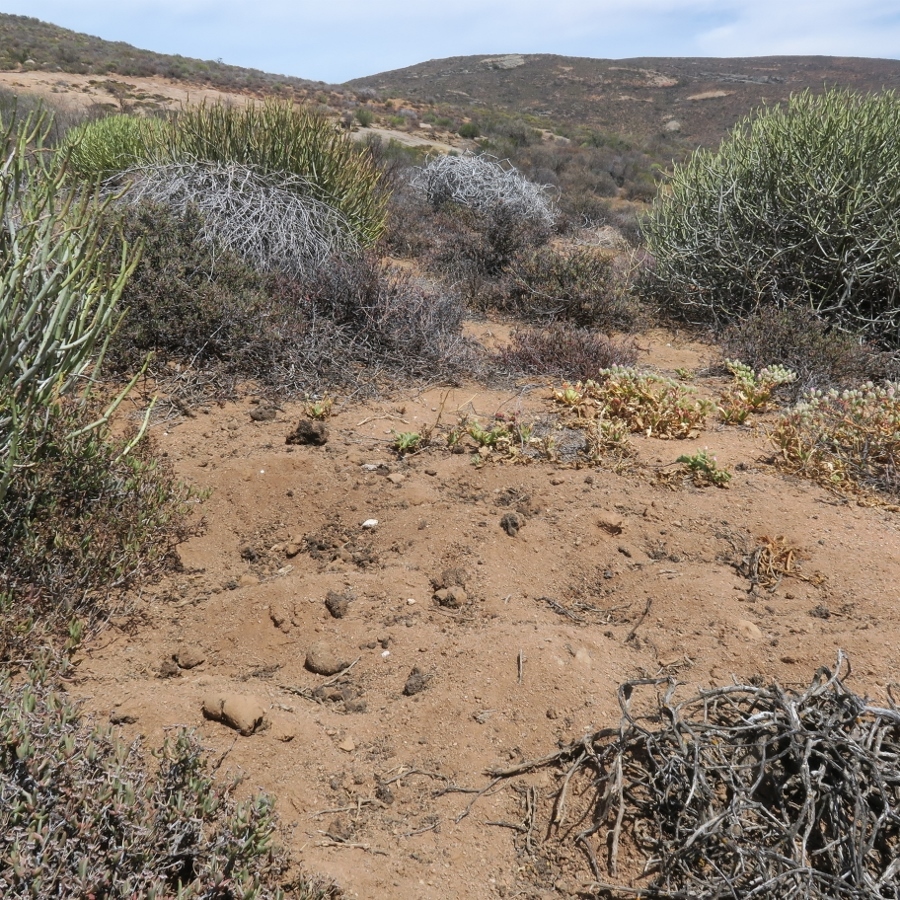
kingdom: Animalia
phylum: Chordata
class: Mammalia
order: Carnivora
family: Hyaenidae
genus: Proteles
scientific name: Proteles cristata
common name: Aardwolf
